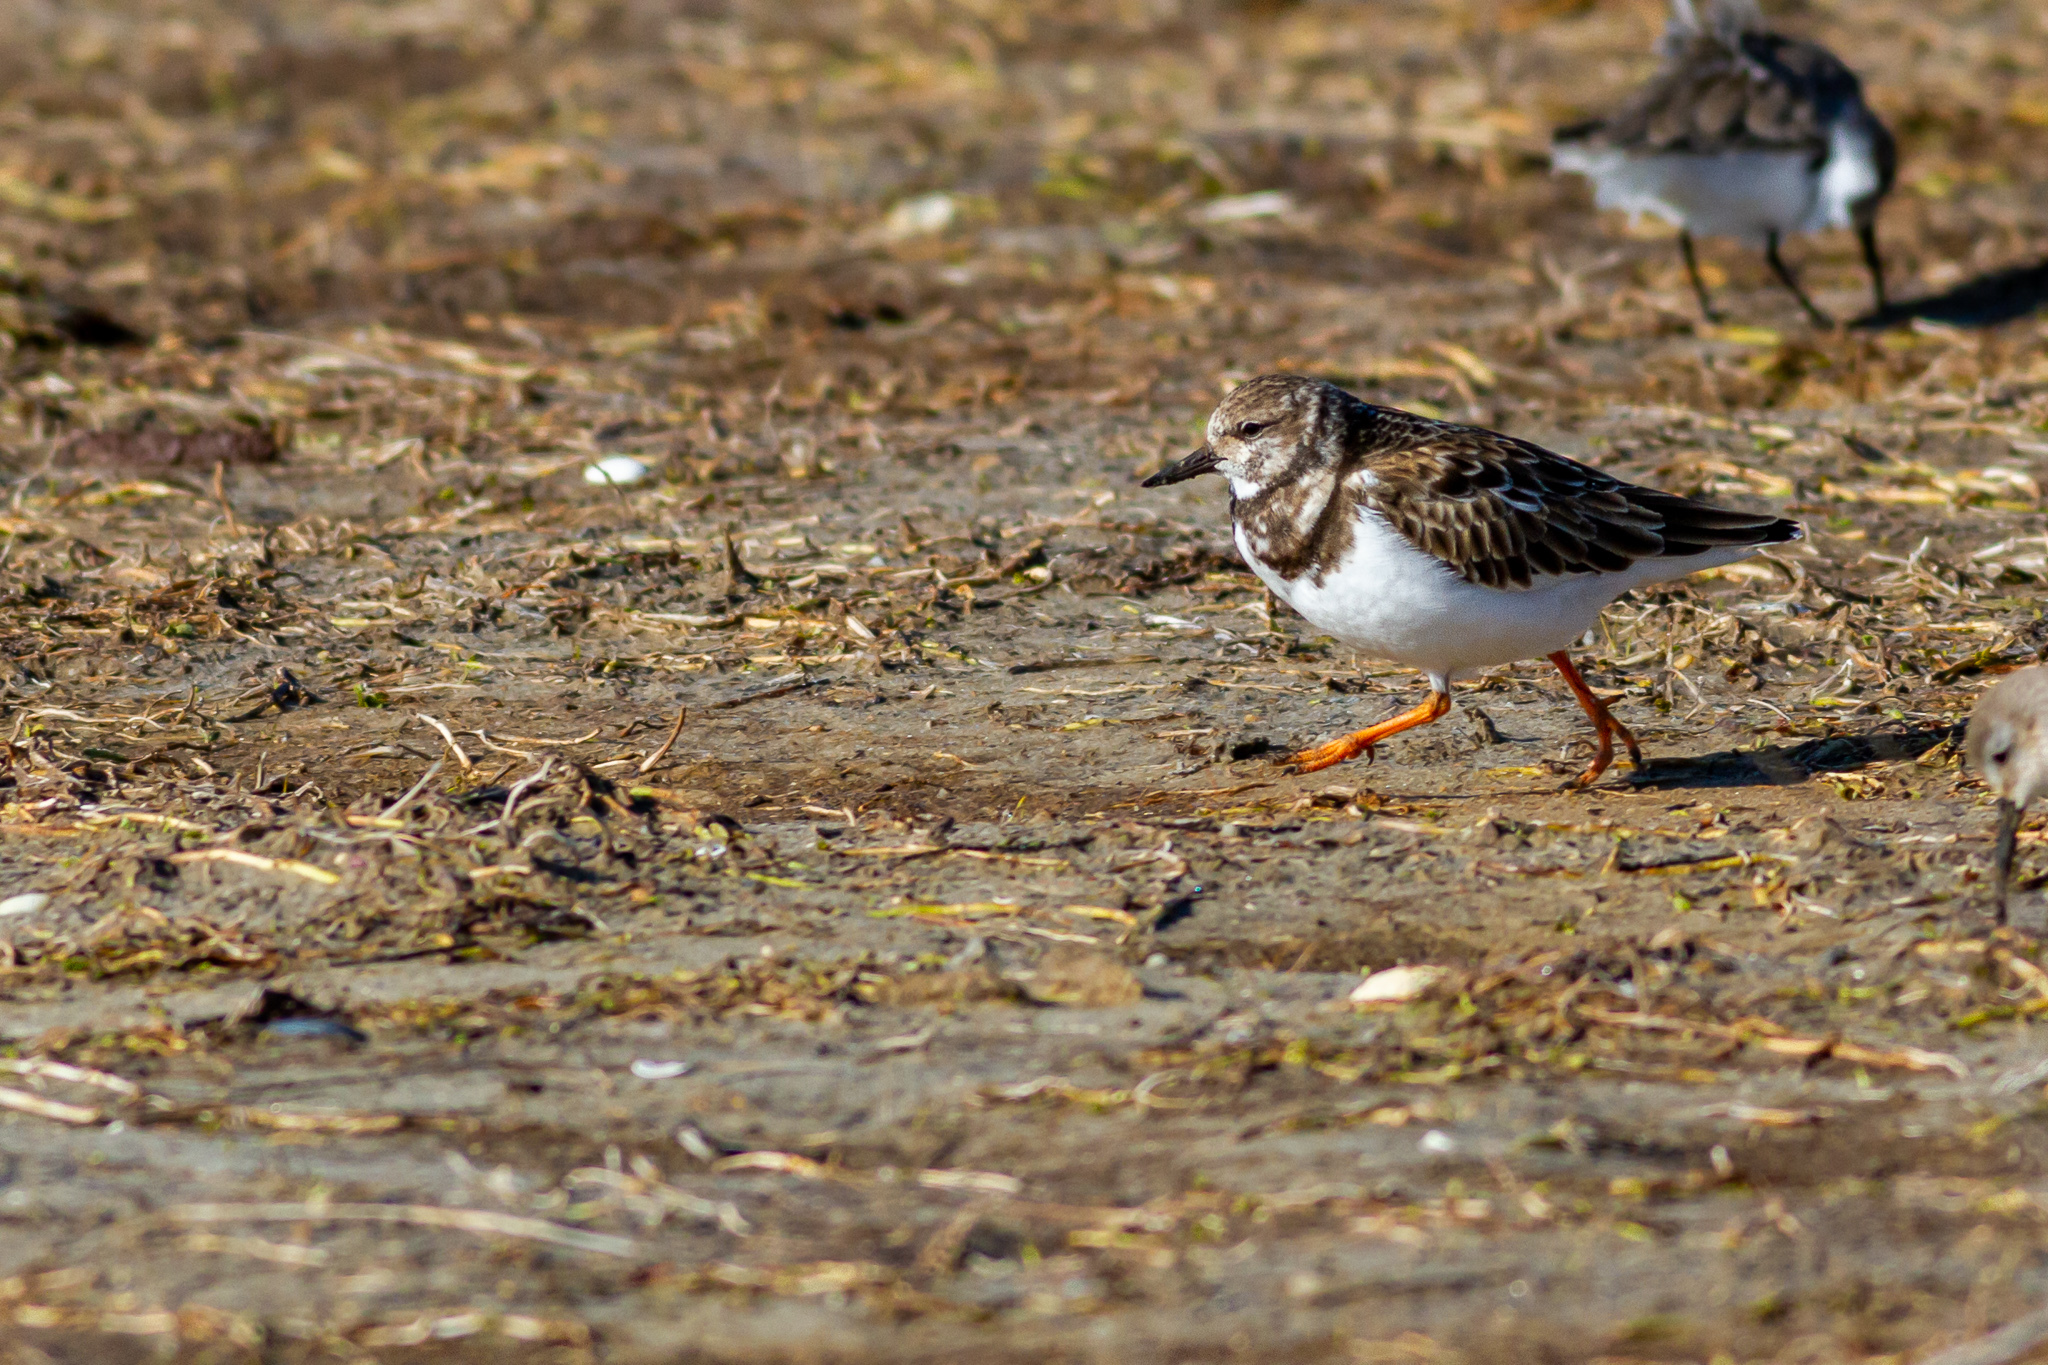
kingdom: Animalia
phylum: Chordata
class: Aves
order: Charadriiformes
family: Scolopacidae
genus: Arenaria
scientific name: Arenaria interpres
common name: Ruddy turnstone
